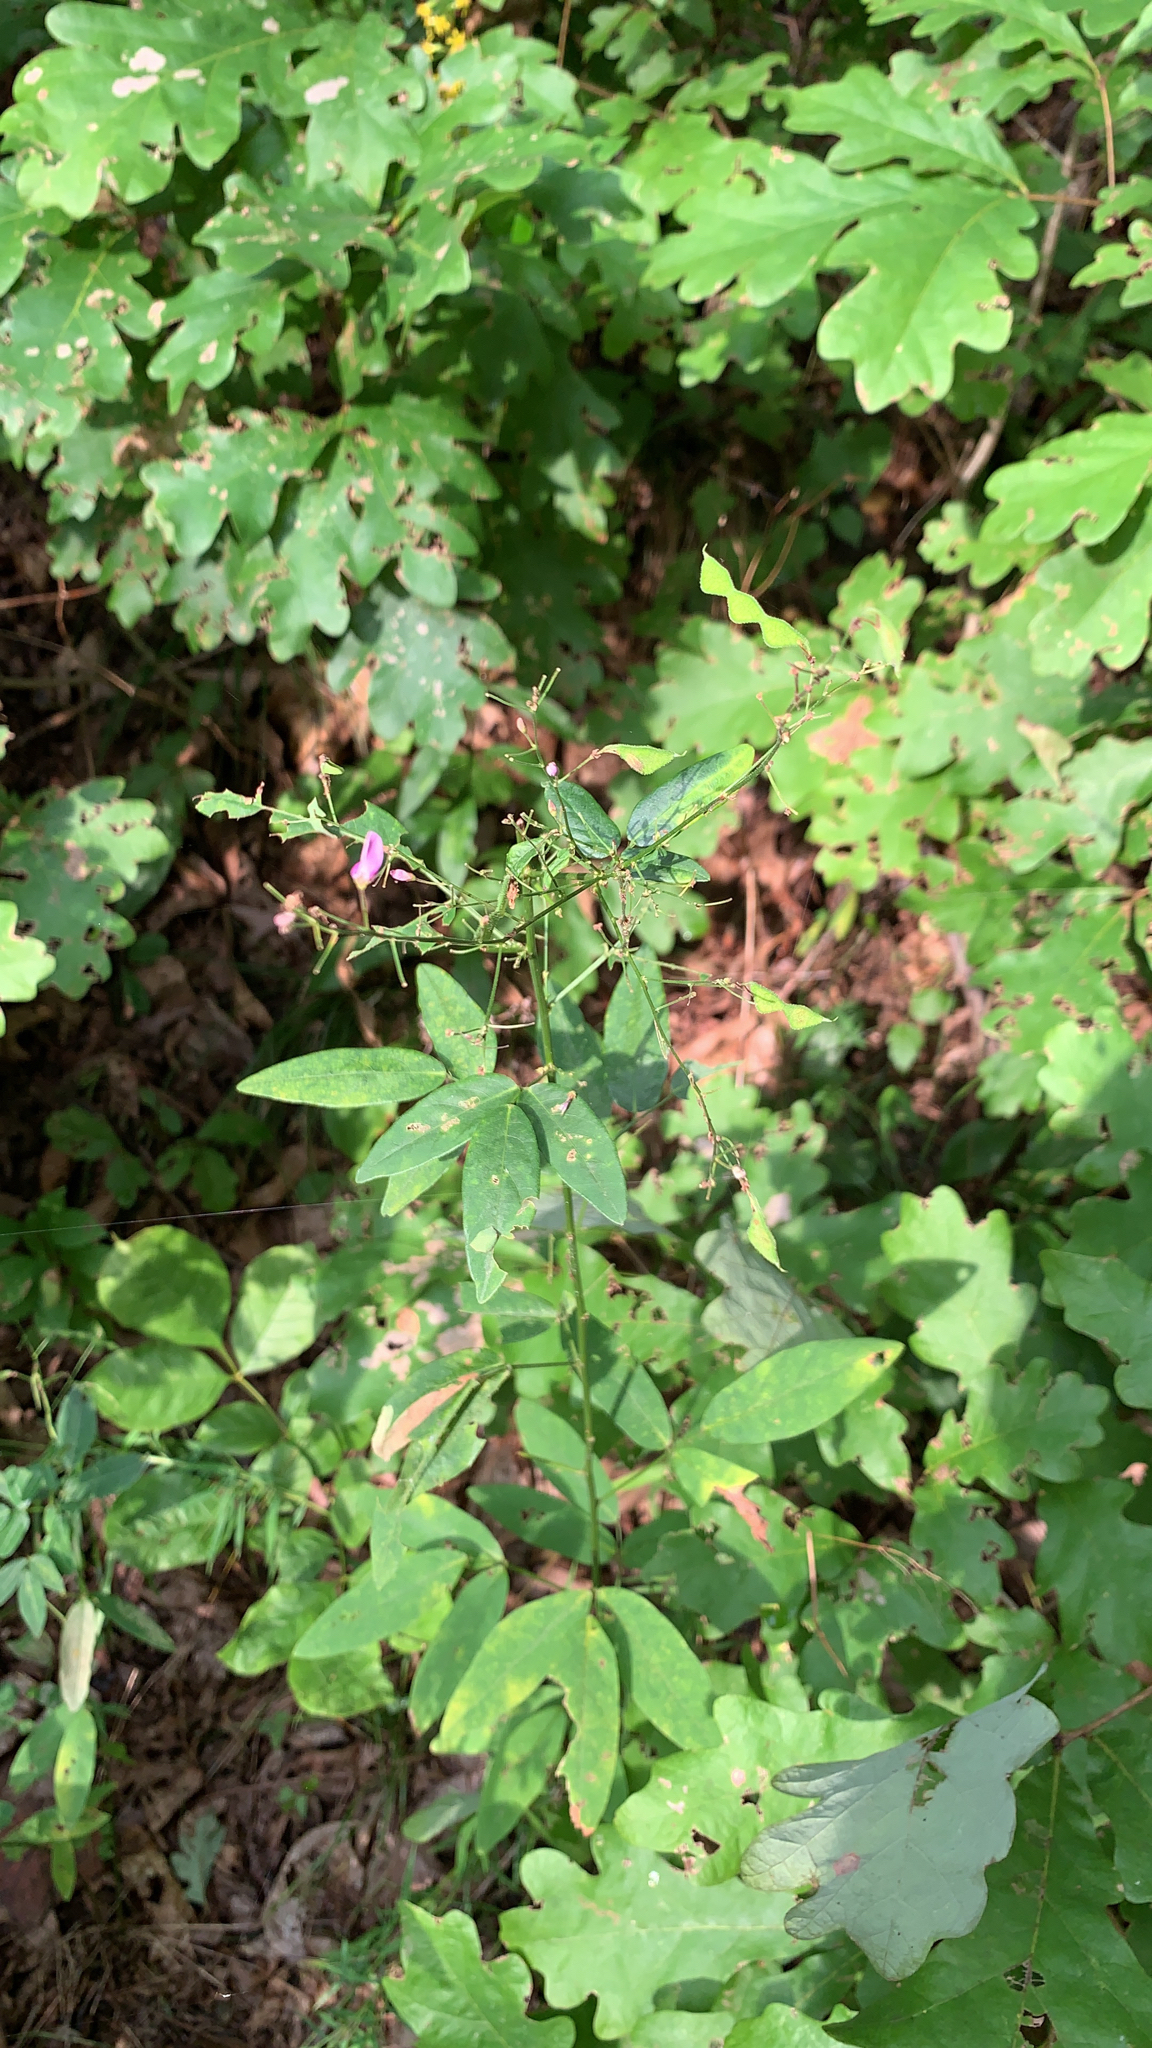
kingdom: Plantae
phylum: Tracheophyta
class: Magnoliopsida
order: Fabales
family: Fabaceae
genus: Desmodium
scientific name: Desmodium paniculatum
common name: Panicled tick-clover
